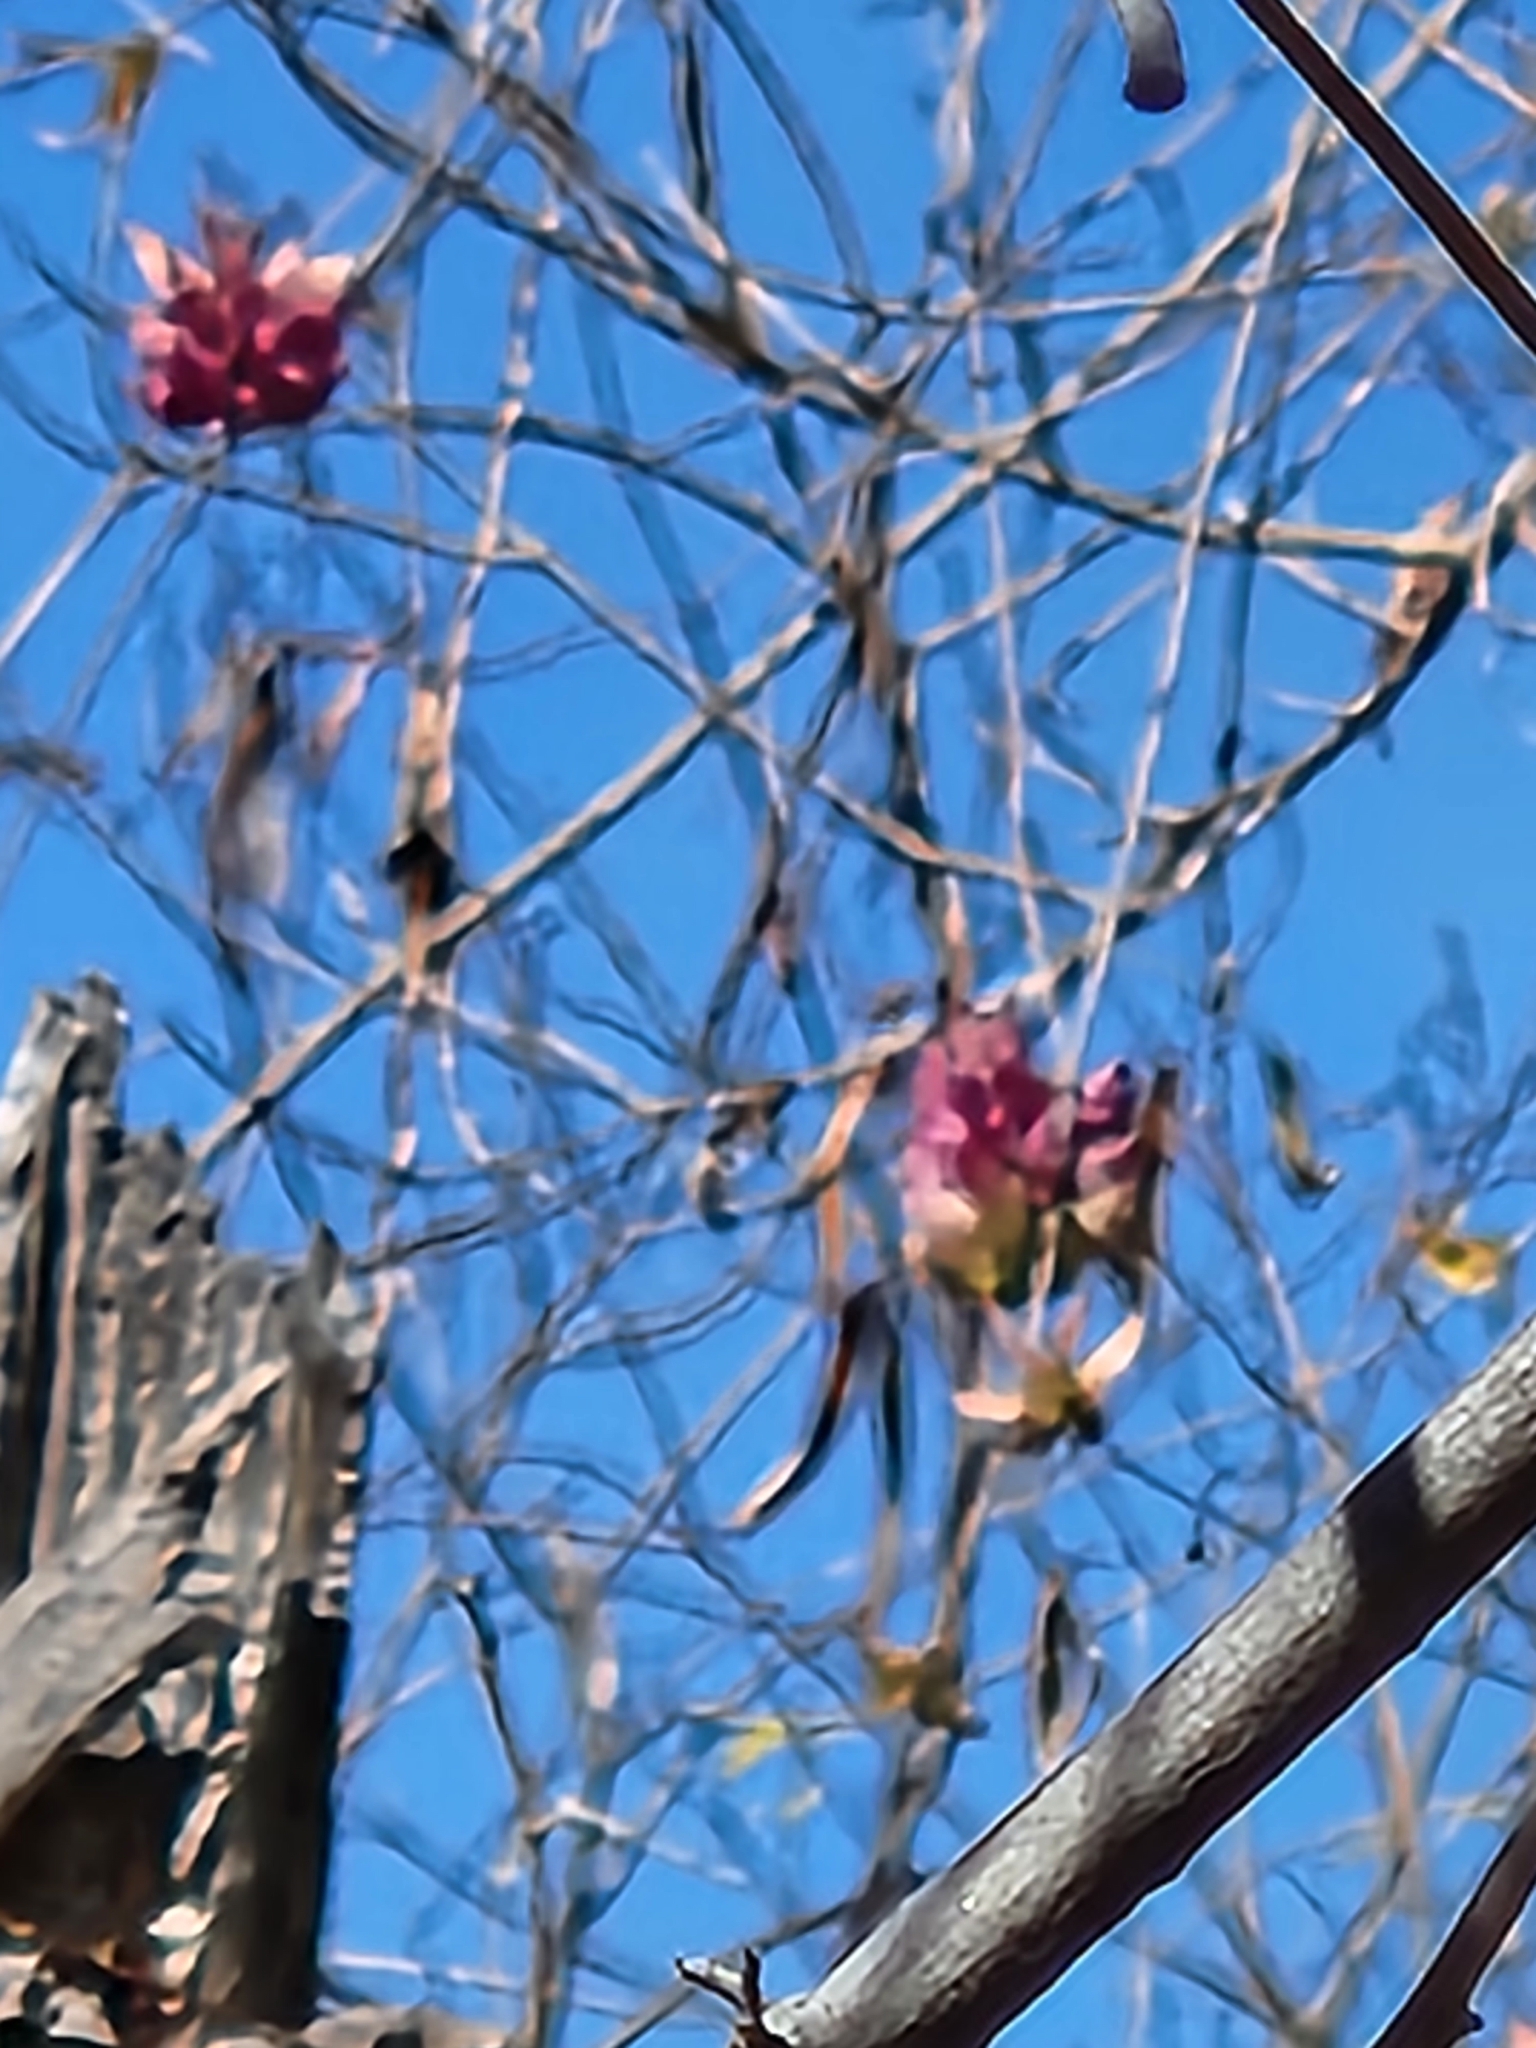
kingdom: Plantae
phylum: Tracheophyta
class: Magnoliopsida
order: Solanales
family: Convolvulaceae
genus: Ipomoea
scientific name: Ipomoea bracteata
